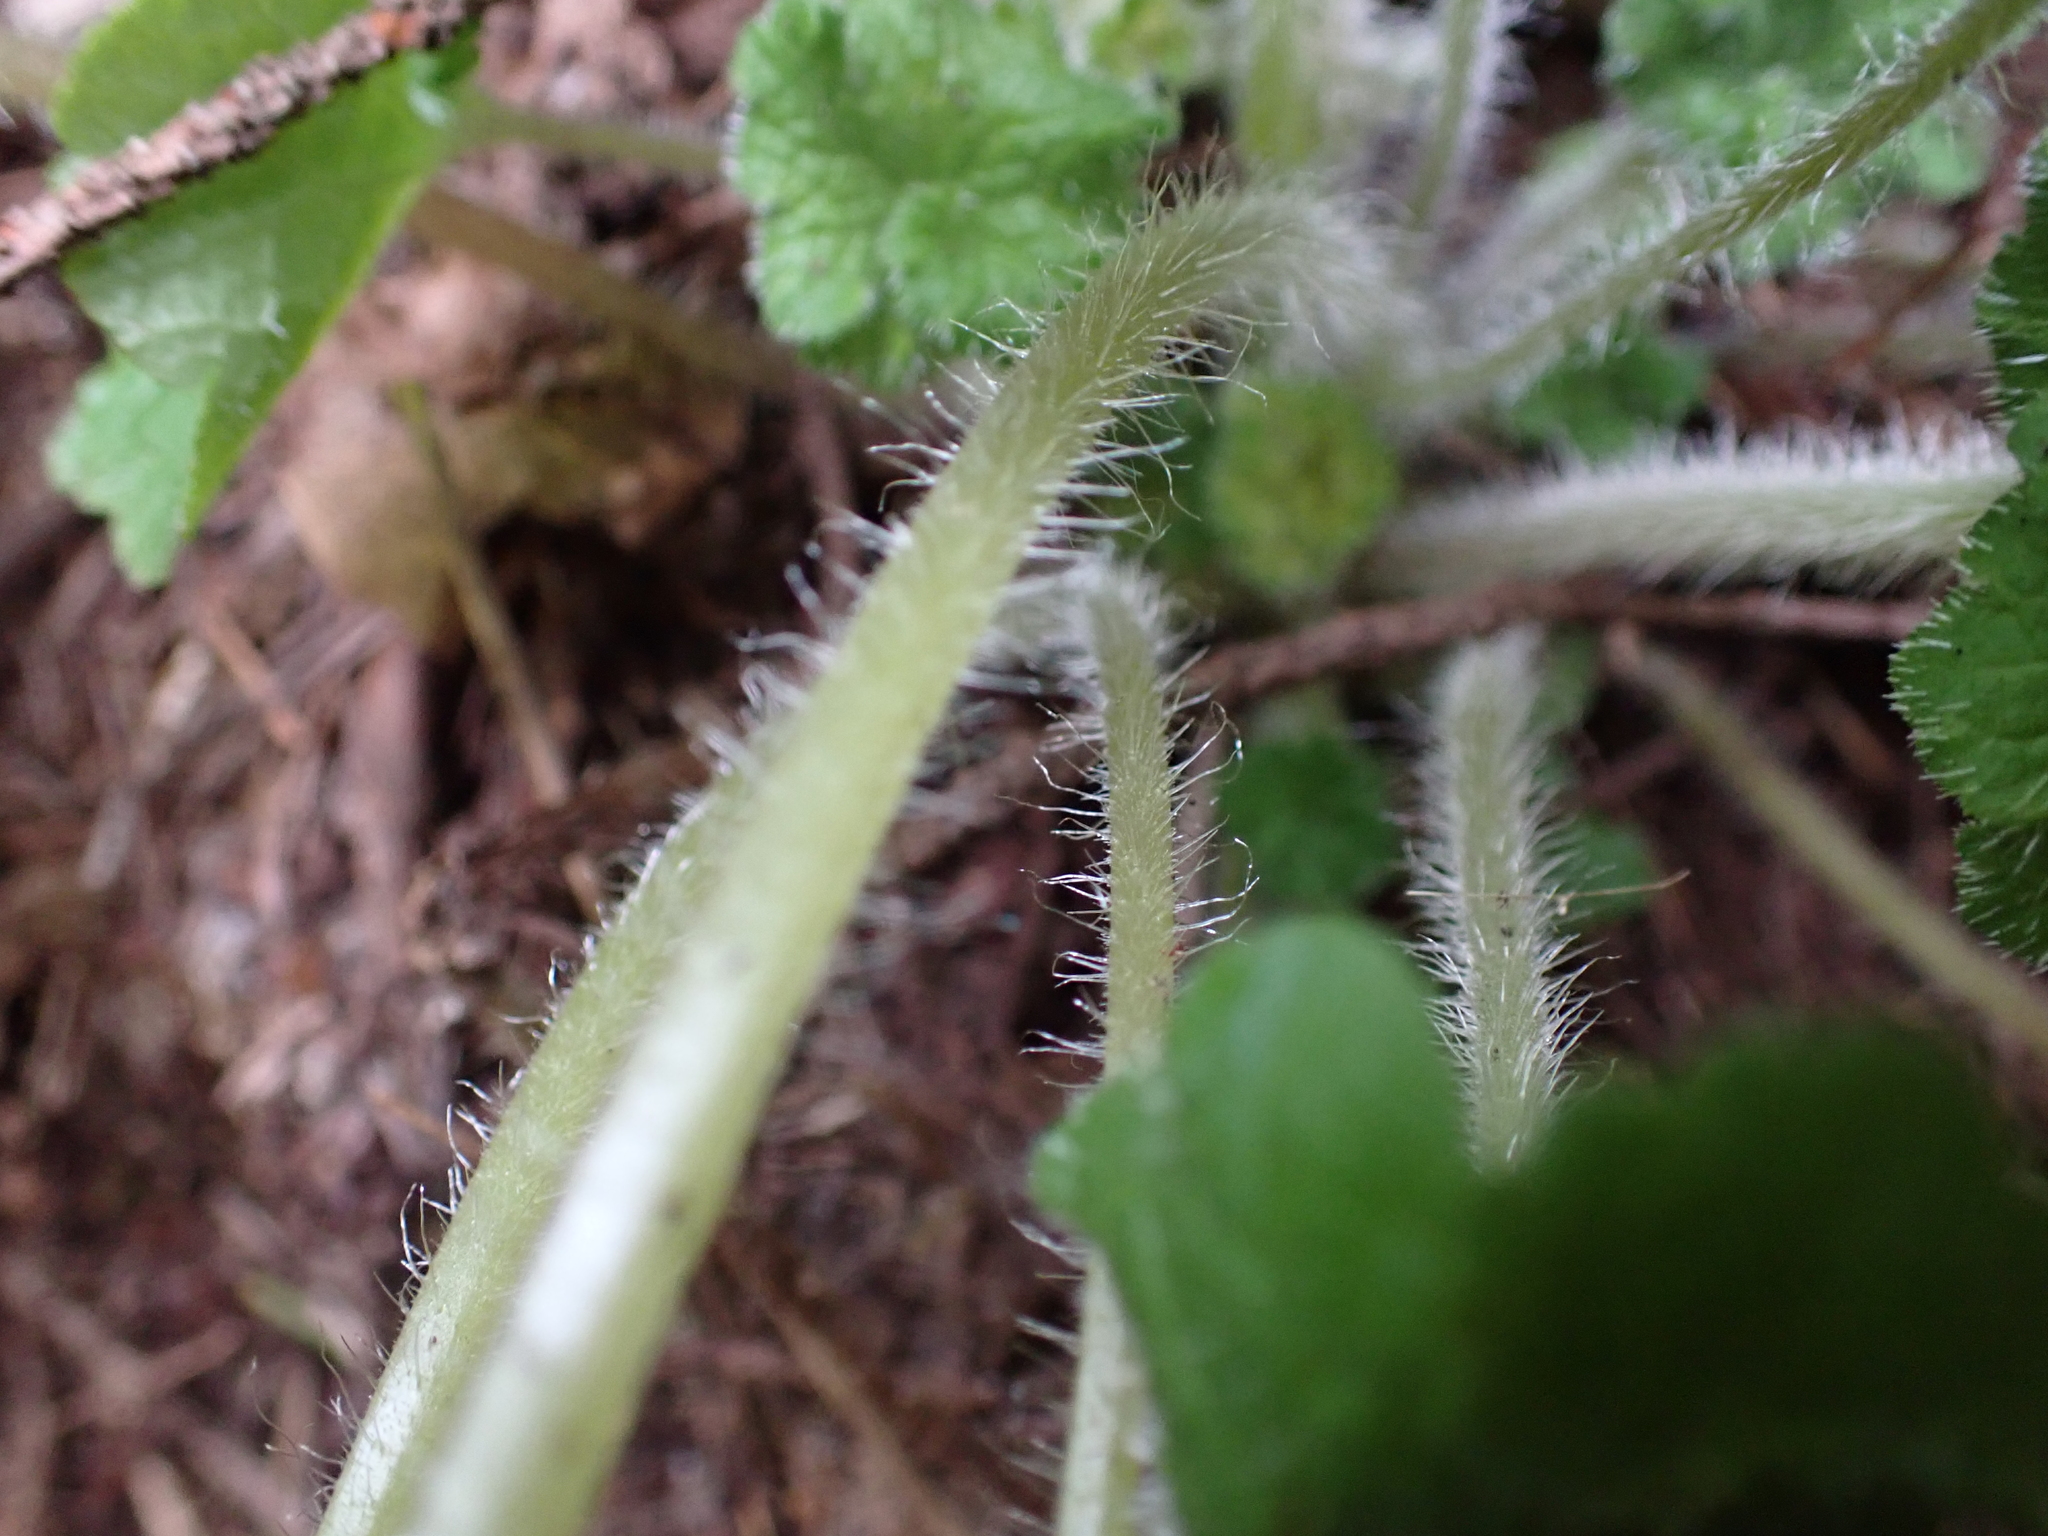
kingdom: Plantae
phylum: Tracheophyta
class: Magnoliopsida
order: Saxifragales
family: Saxifragaceae
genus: Tellima
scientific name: Tellima grandiflora
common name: Fringecups
